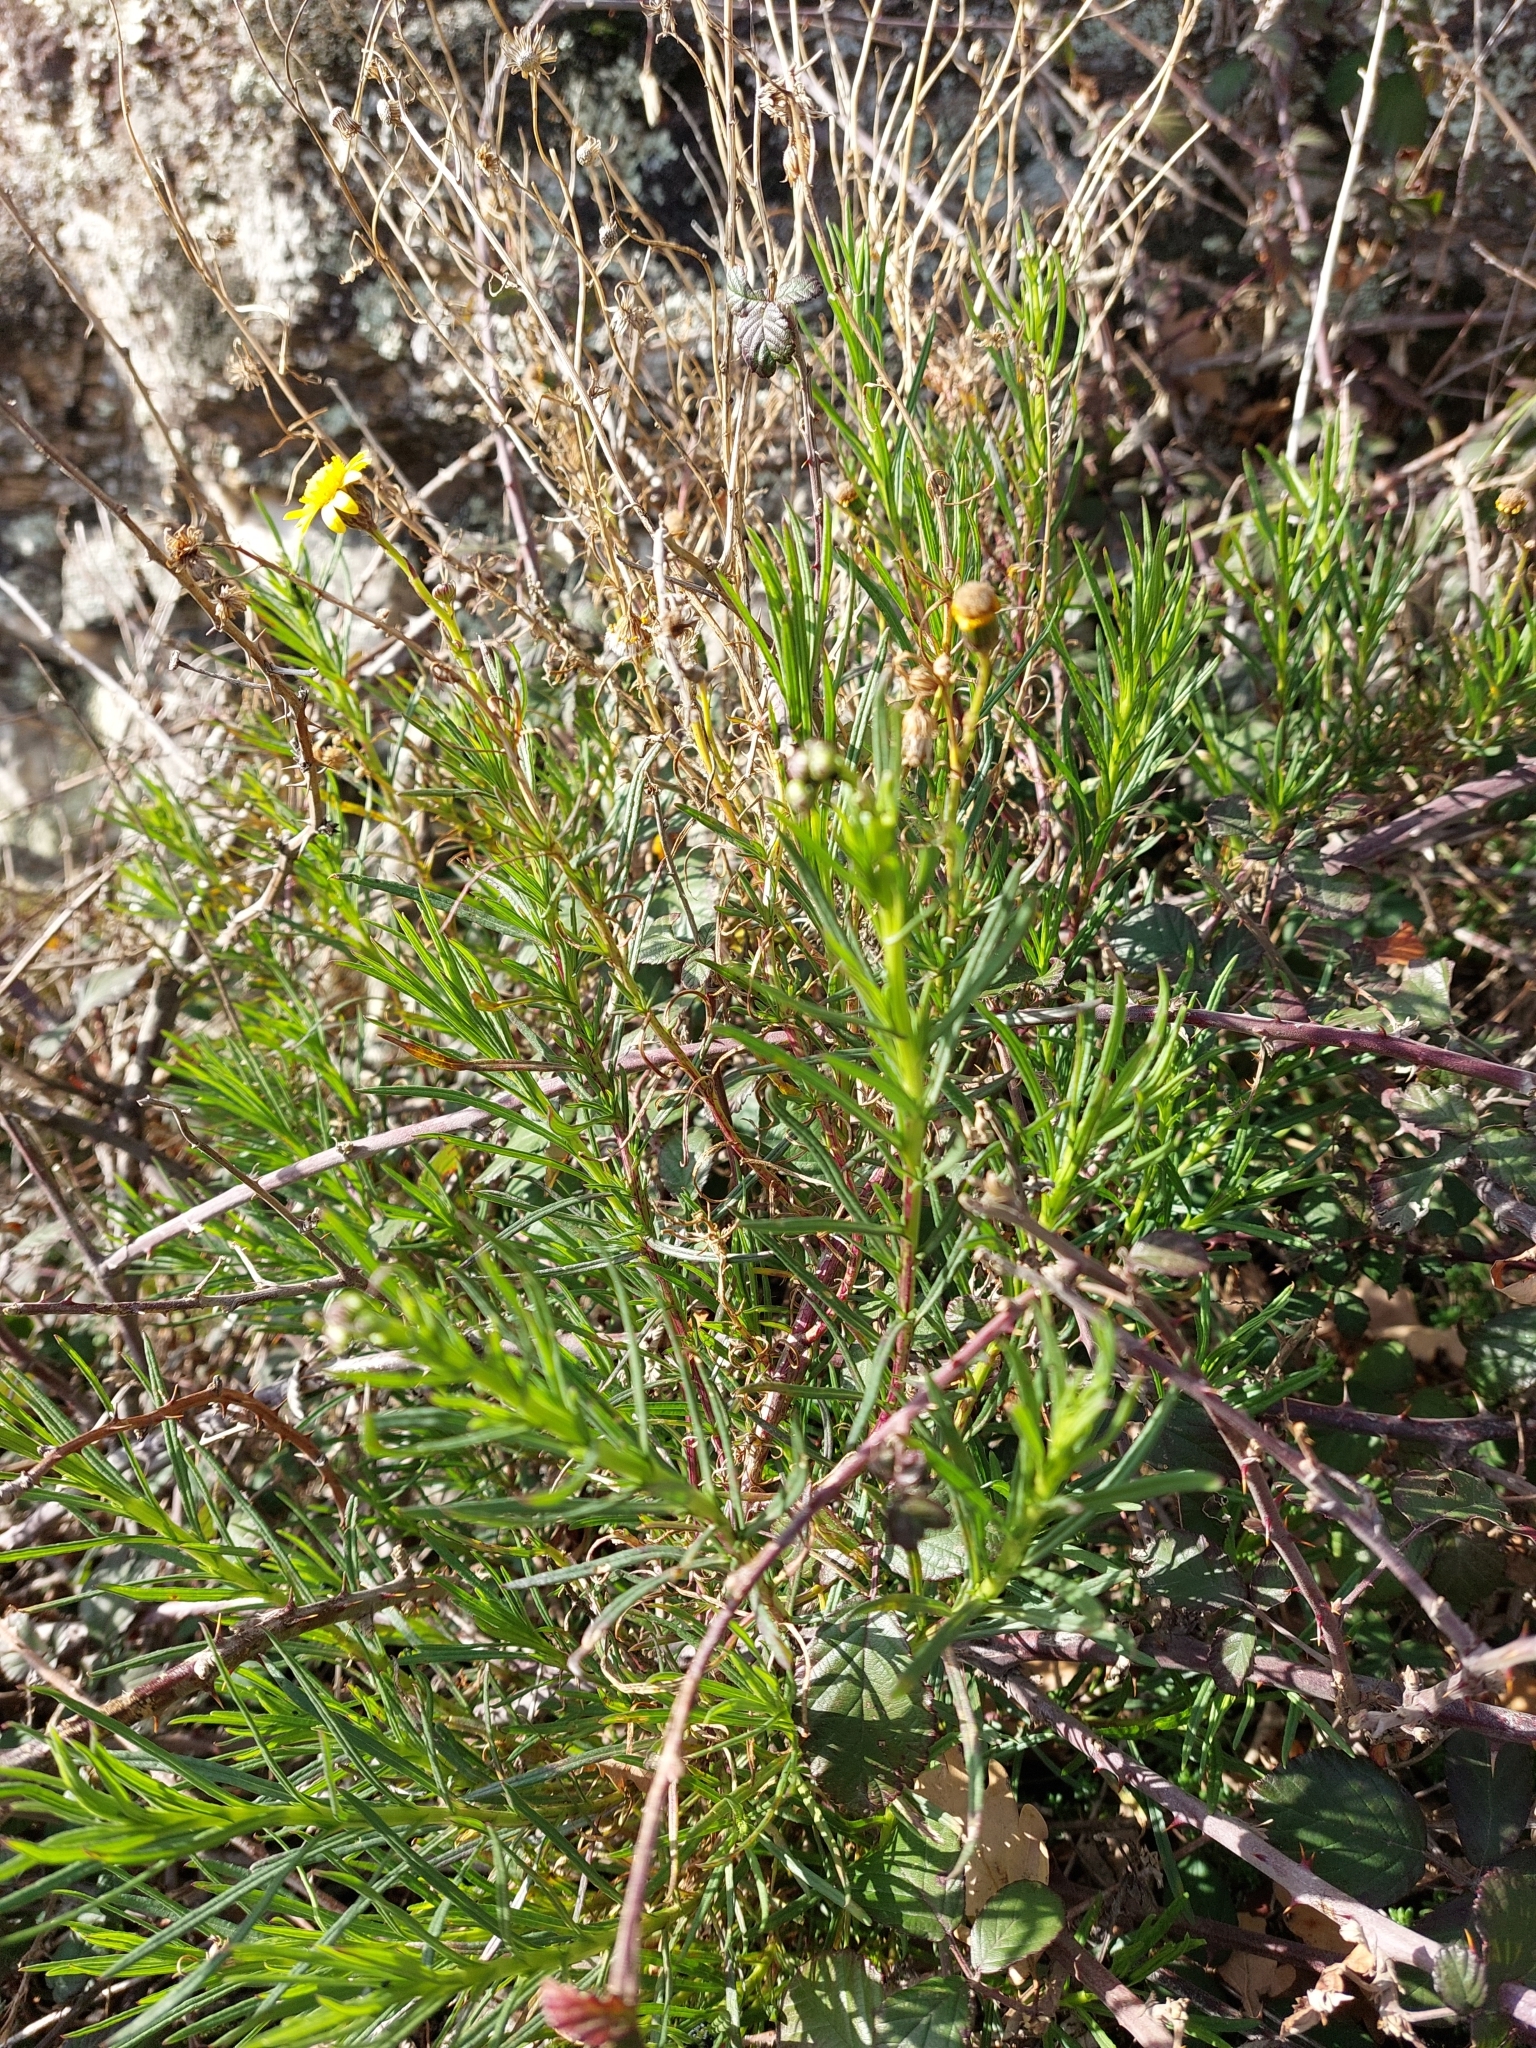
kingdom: Plantae
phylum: Tracheophyta
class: Magnoliopsida
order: Asterales
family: Asteraceae
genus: Senecio
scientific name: Senecio inaequidens
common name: Narrow-leaved ragwort
